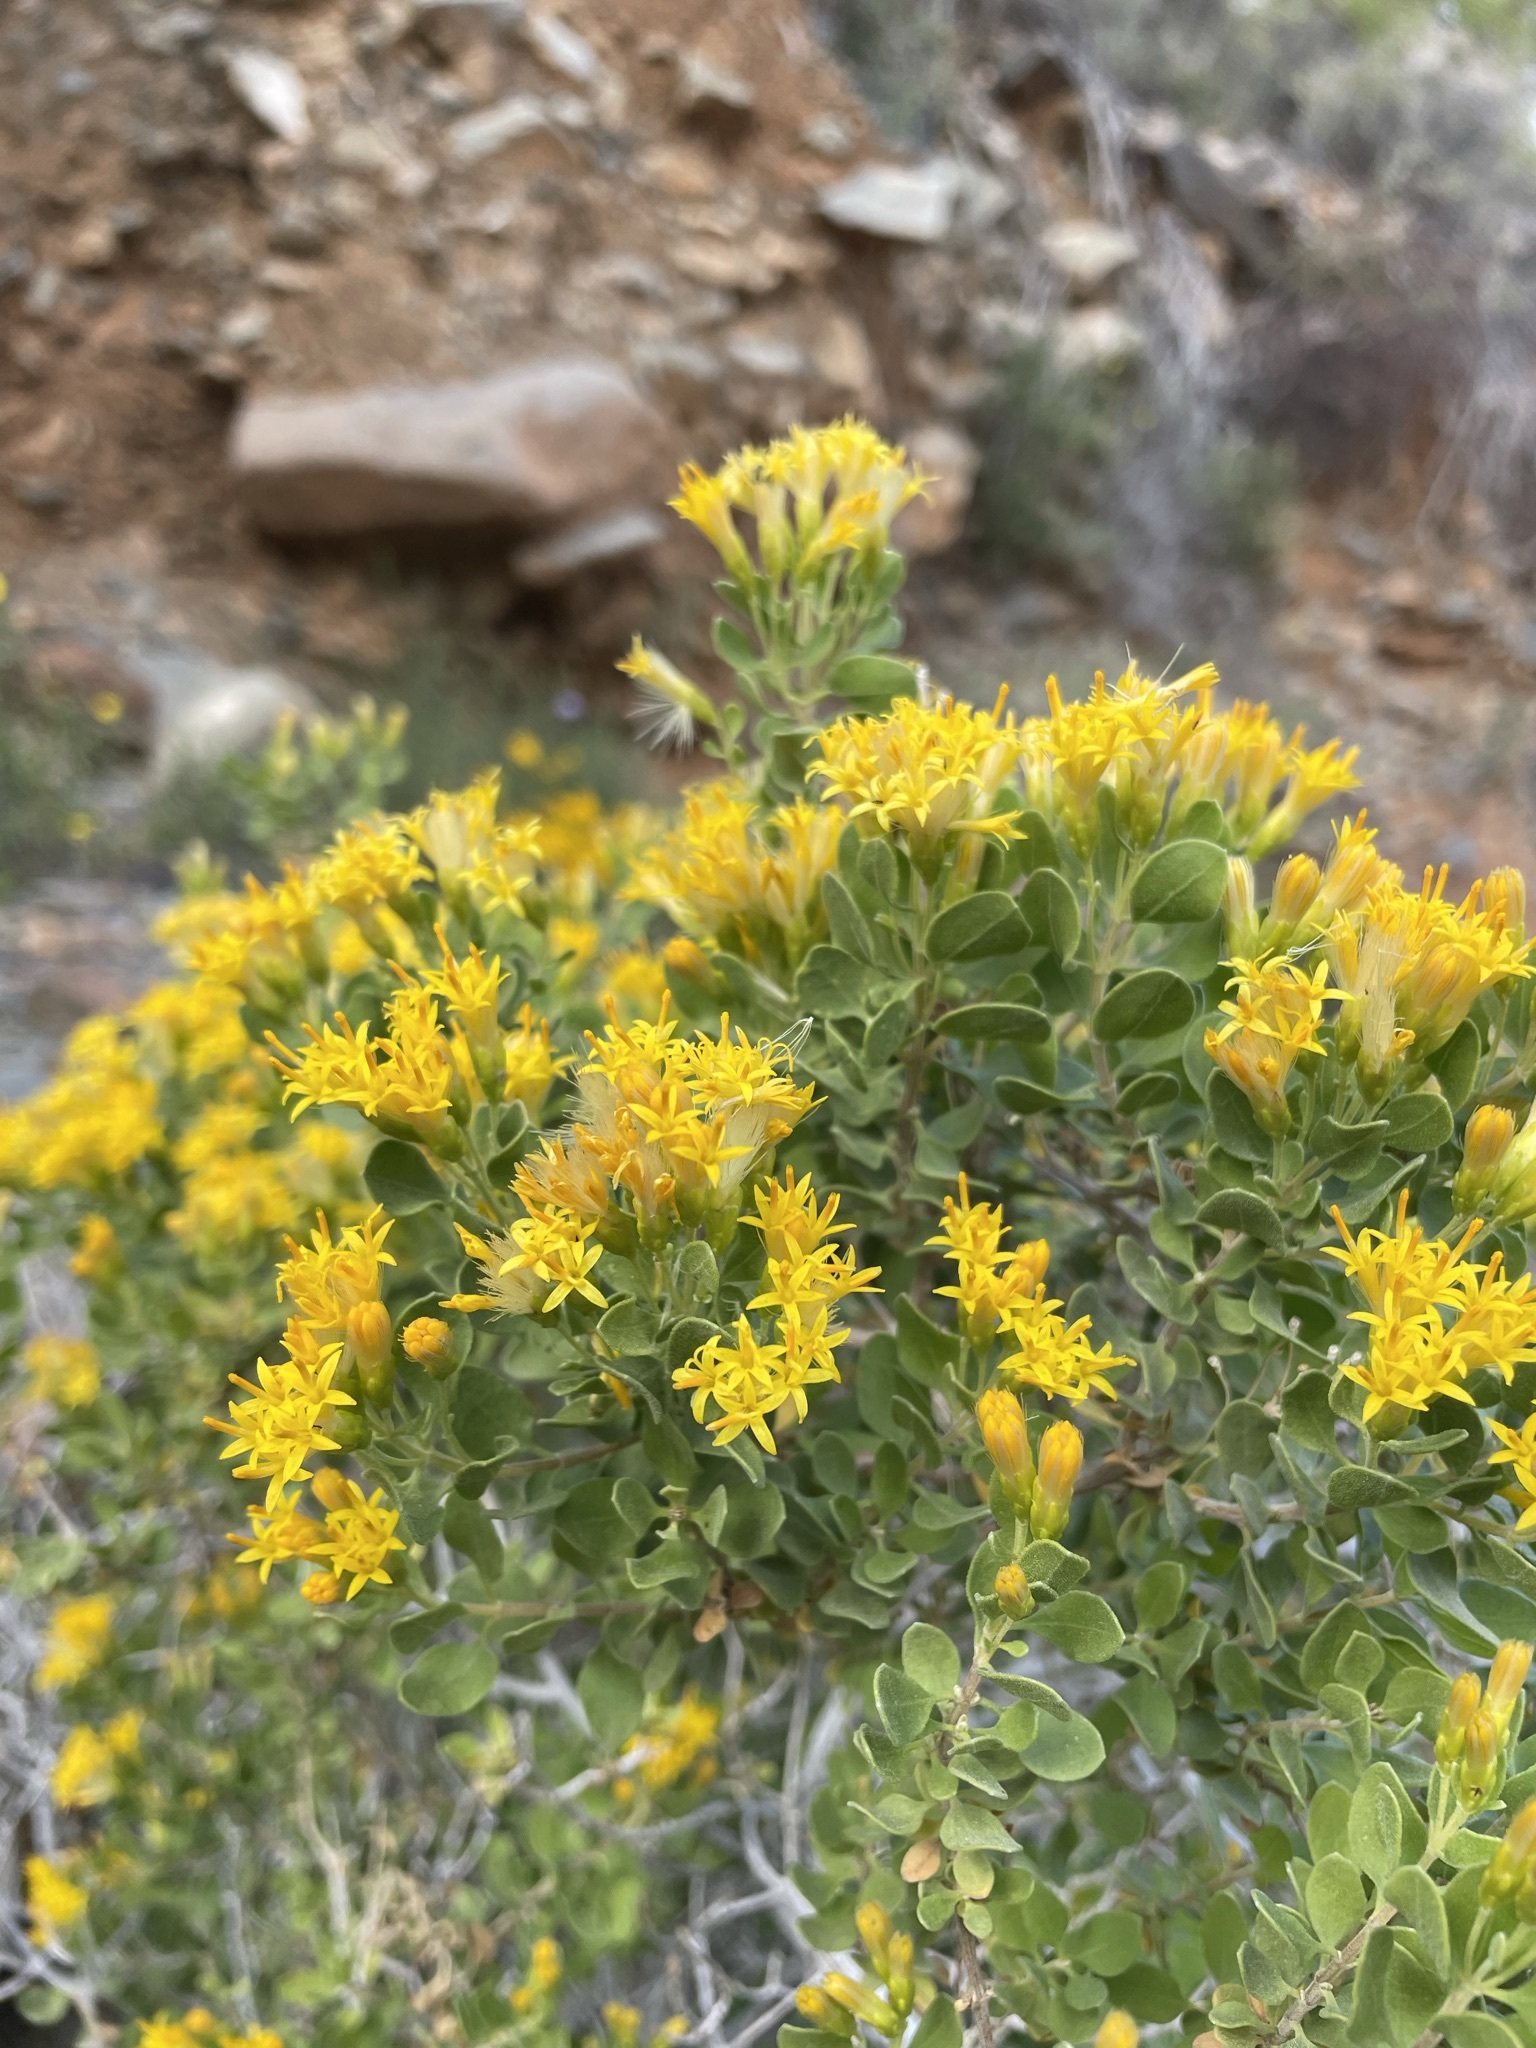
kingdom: Plantae
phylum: Tracheophyta
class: Magnoliopsida
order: Asterales
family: Asteraceae
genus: Pteronia
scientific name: Pteronia divaricata
